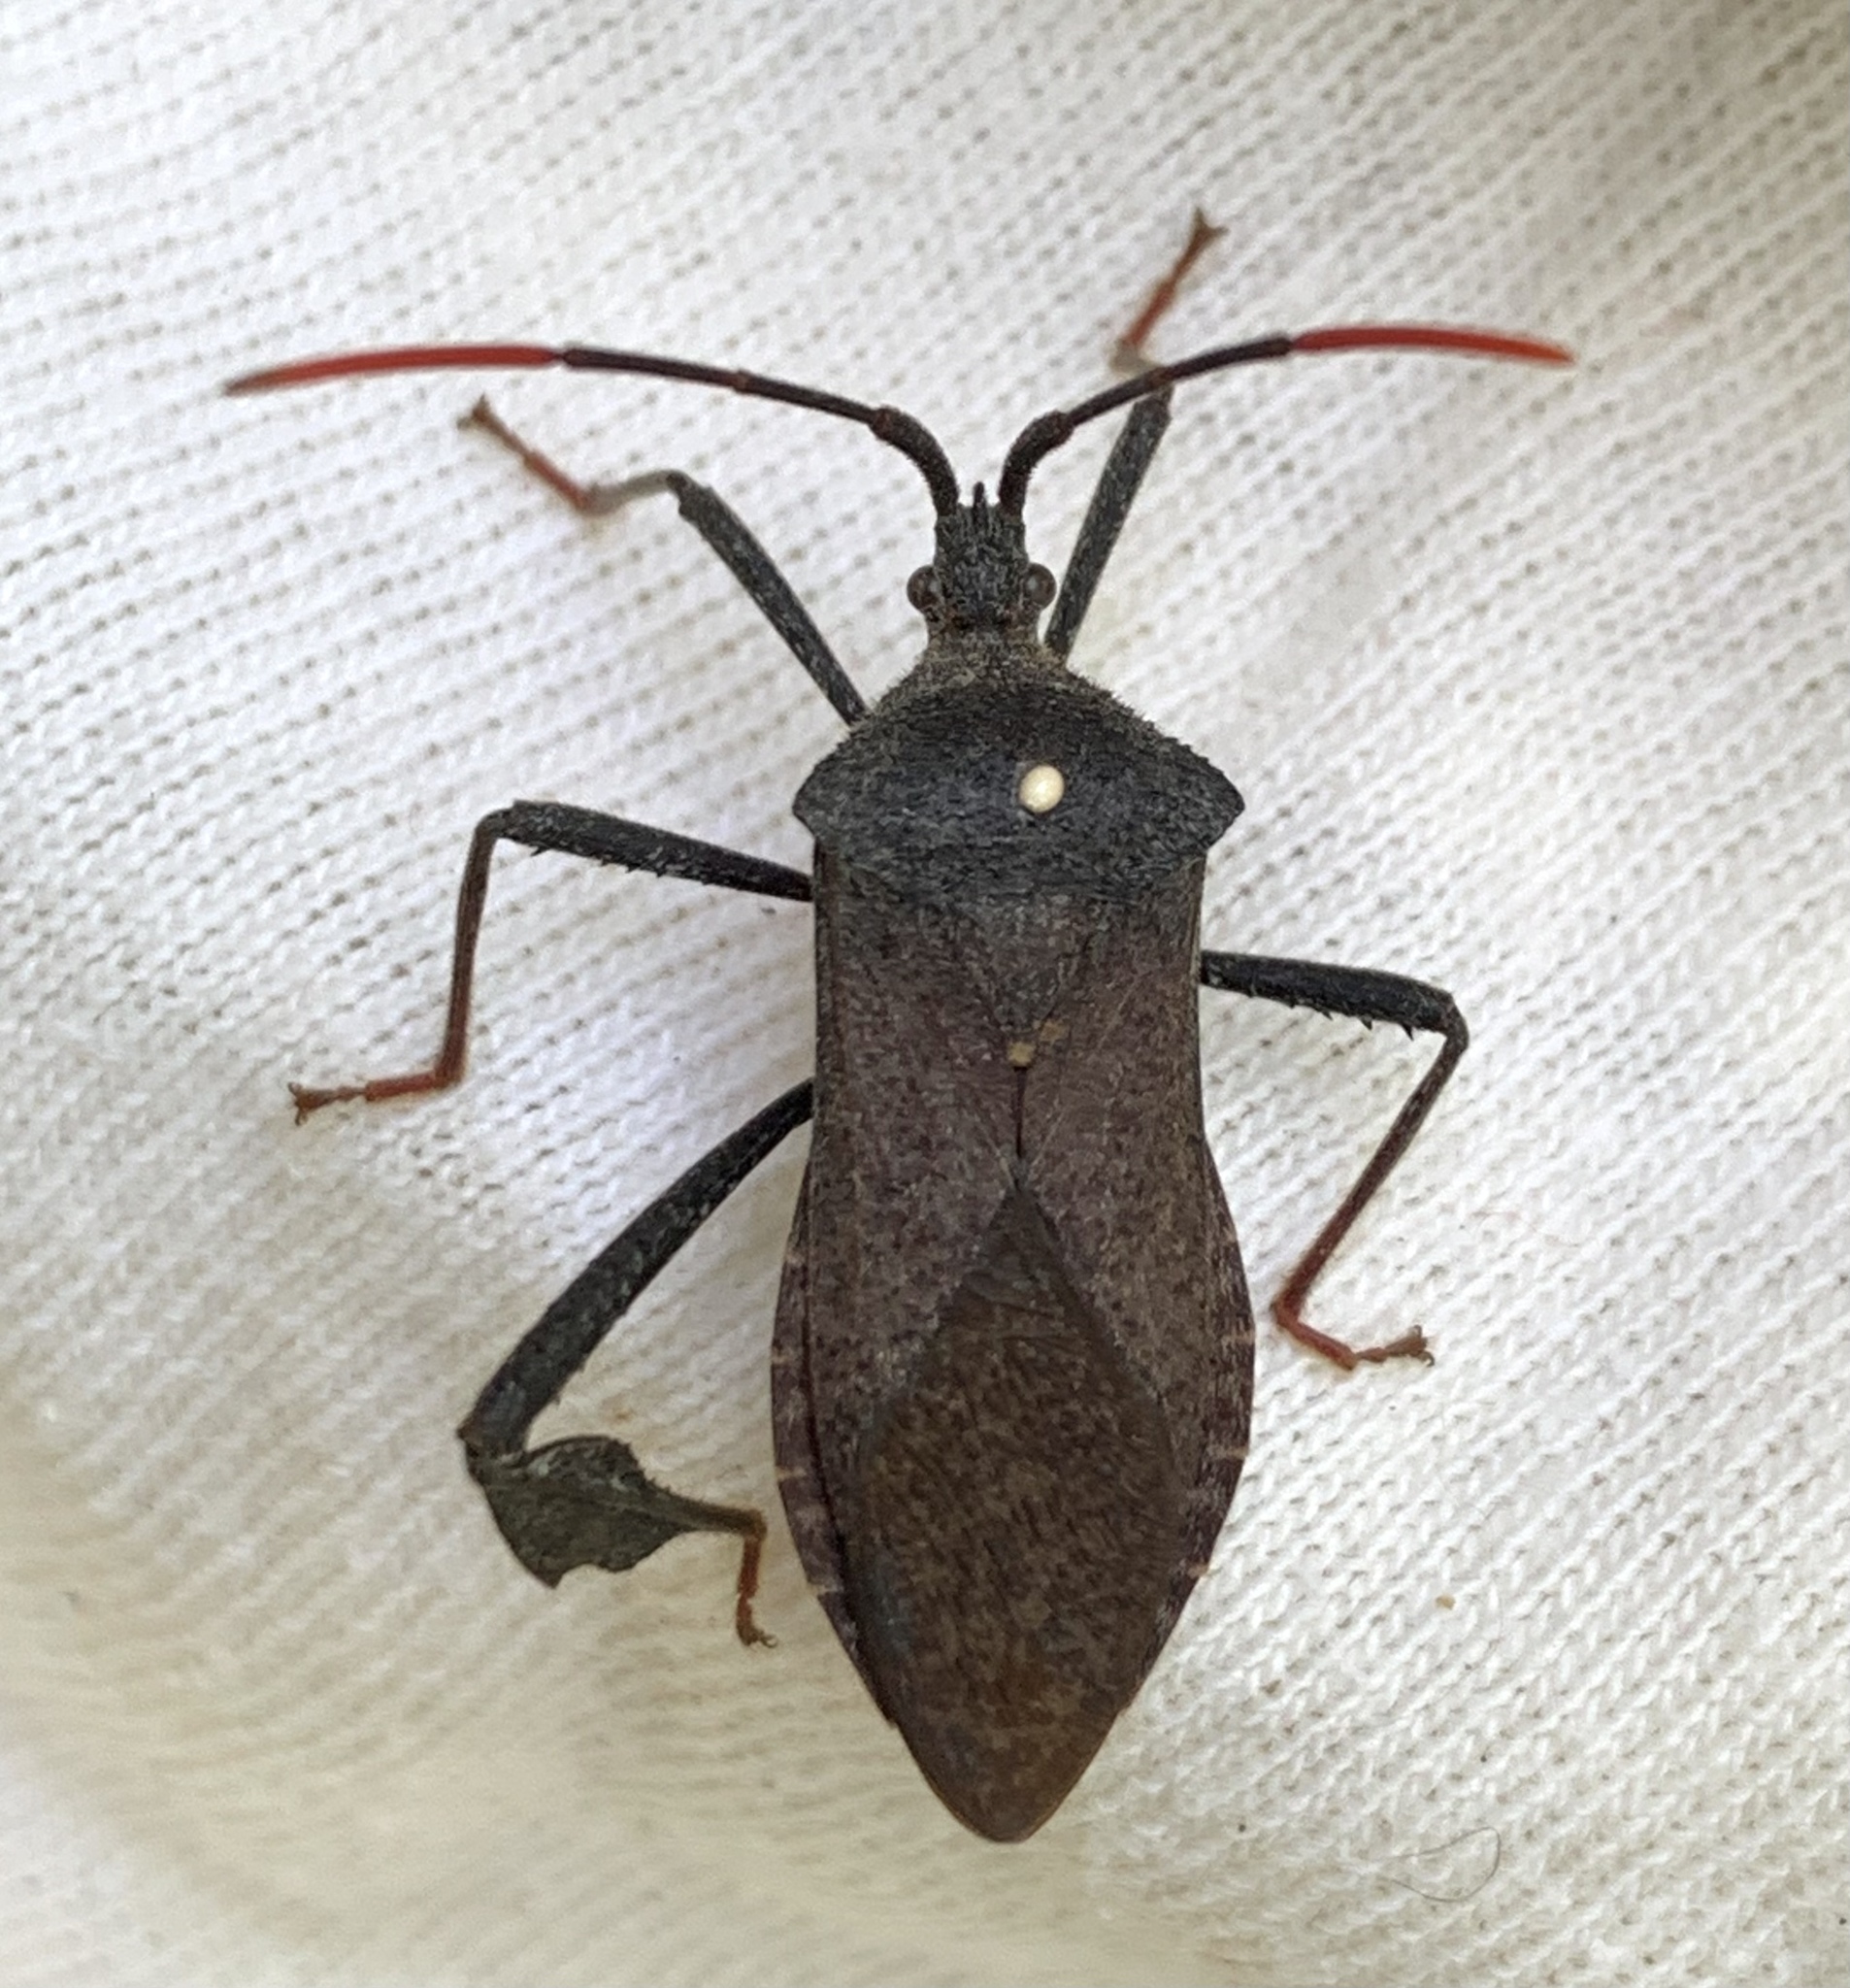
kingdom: Animalia
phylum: Arthropoda
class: Insecta
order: Hemiptera
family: Coreidae
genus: Acanthocephala
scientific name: Acanthocephala terminalis
